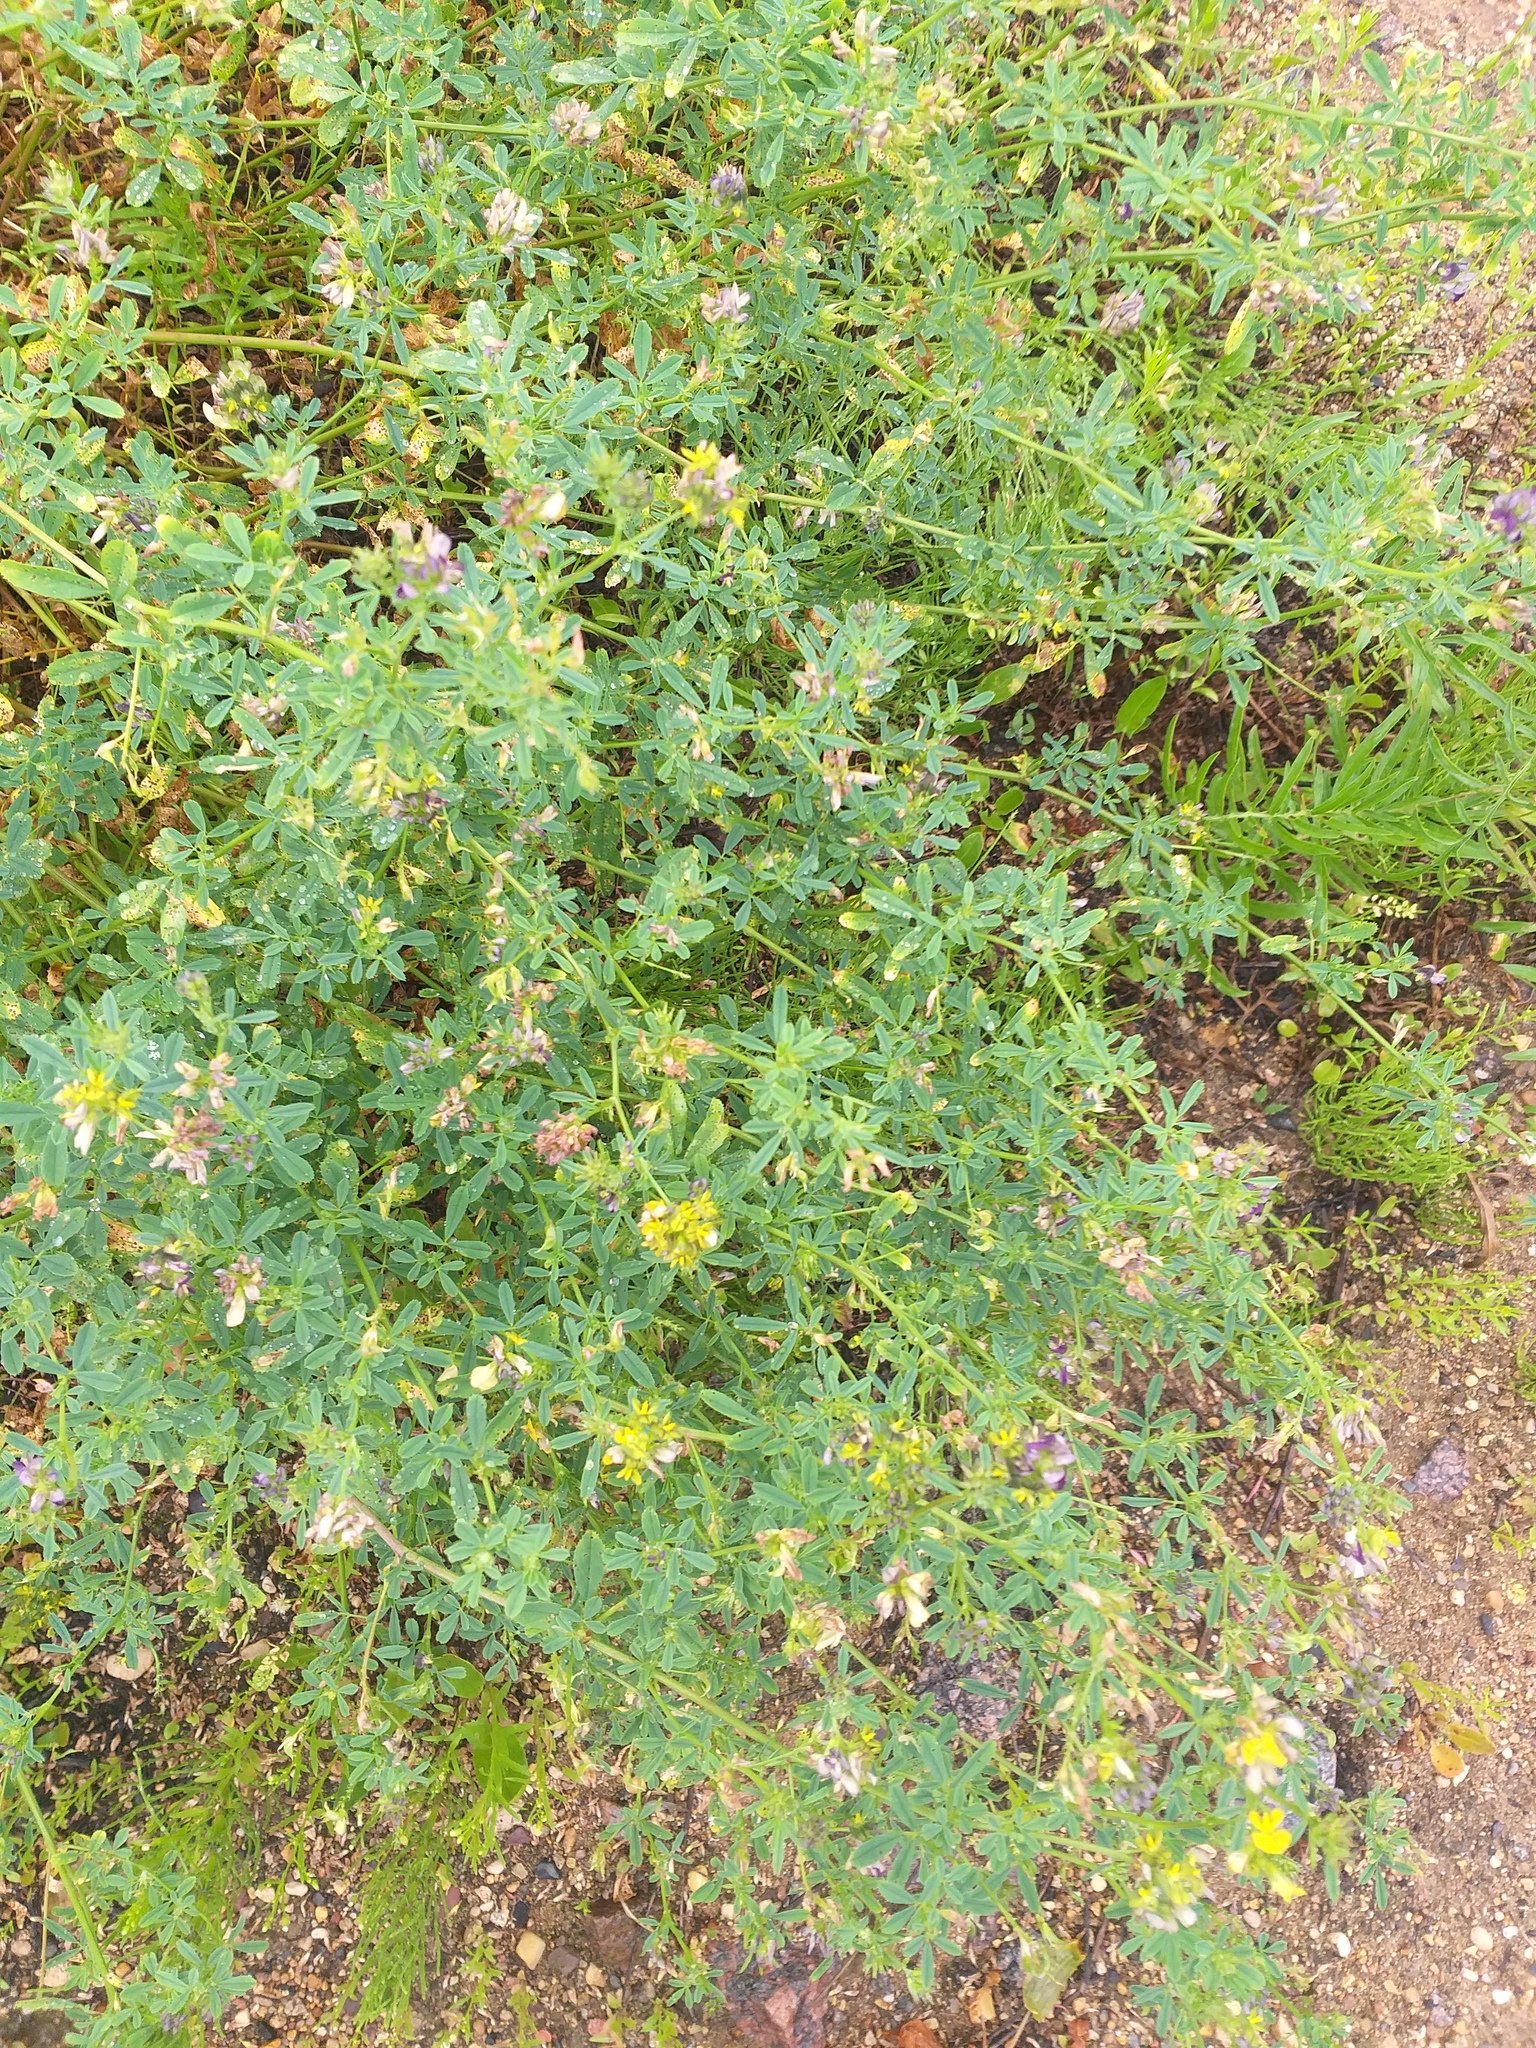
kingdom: Plantae
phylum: Tracheophyta
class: Magnoliopsida
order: Fabales
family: Fabaceae
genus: Medicago
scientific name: Medicago varia
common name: Sand lucerne
